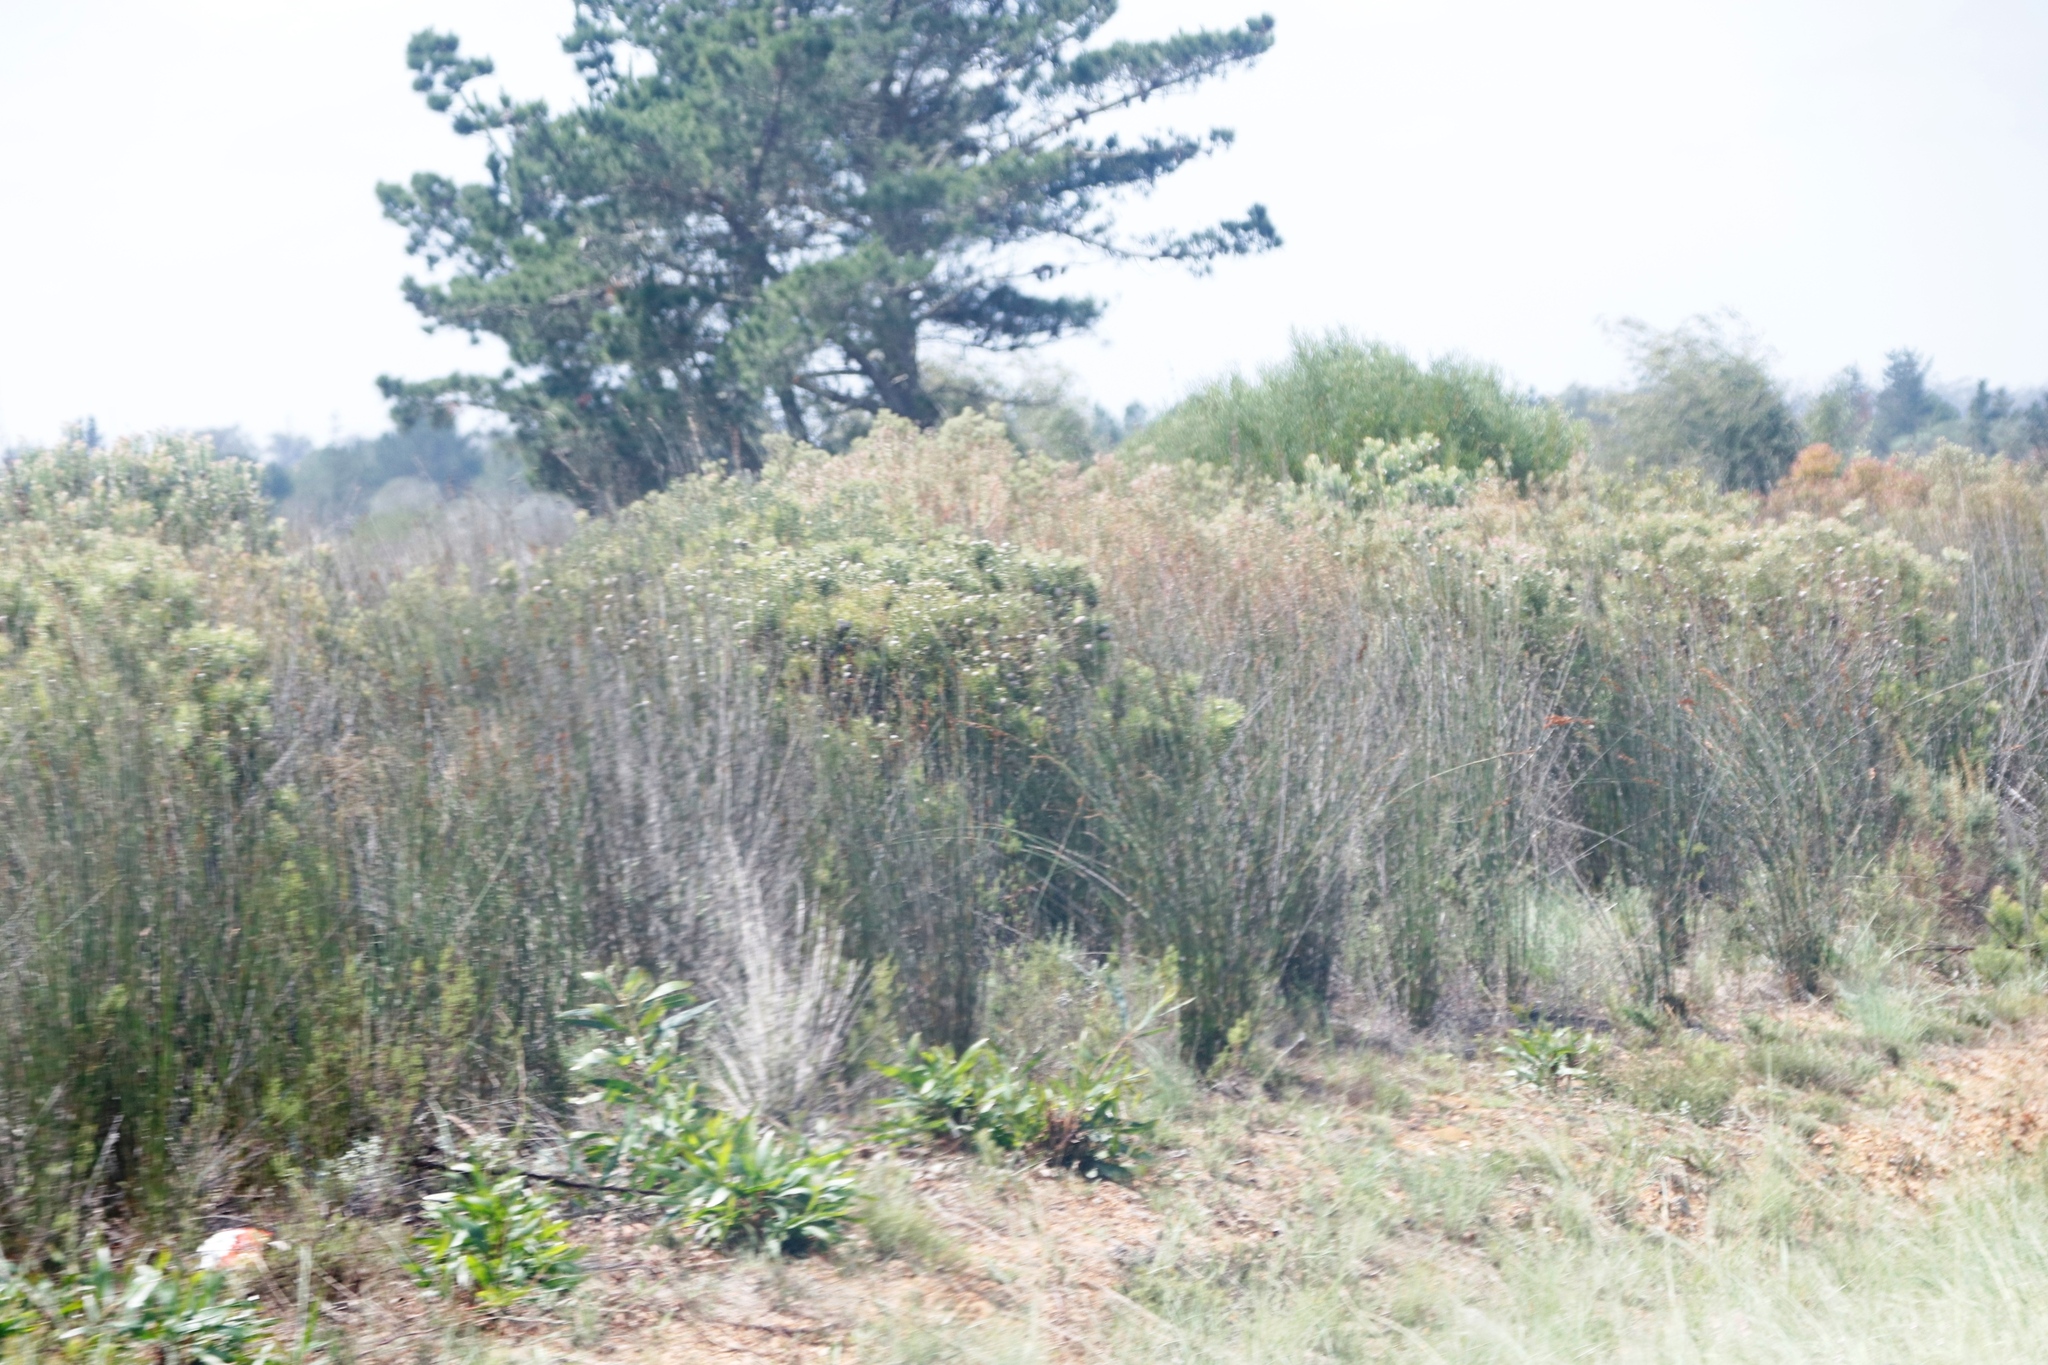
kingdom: Plantae
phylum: Tracheophyta
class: Magnoliopsida
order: Proteales
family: Proteaceae
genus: Leucadendron
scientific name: Leucadendron galpinii
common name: Hairless conebush
